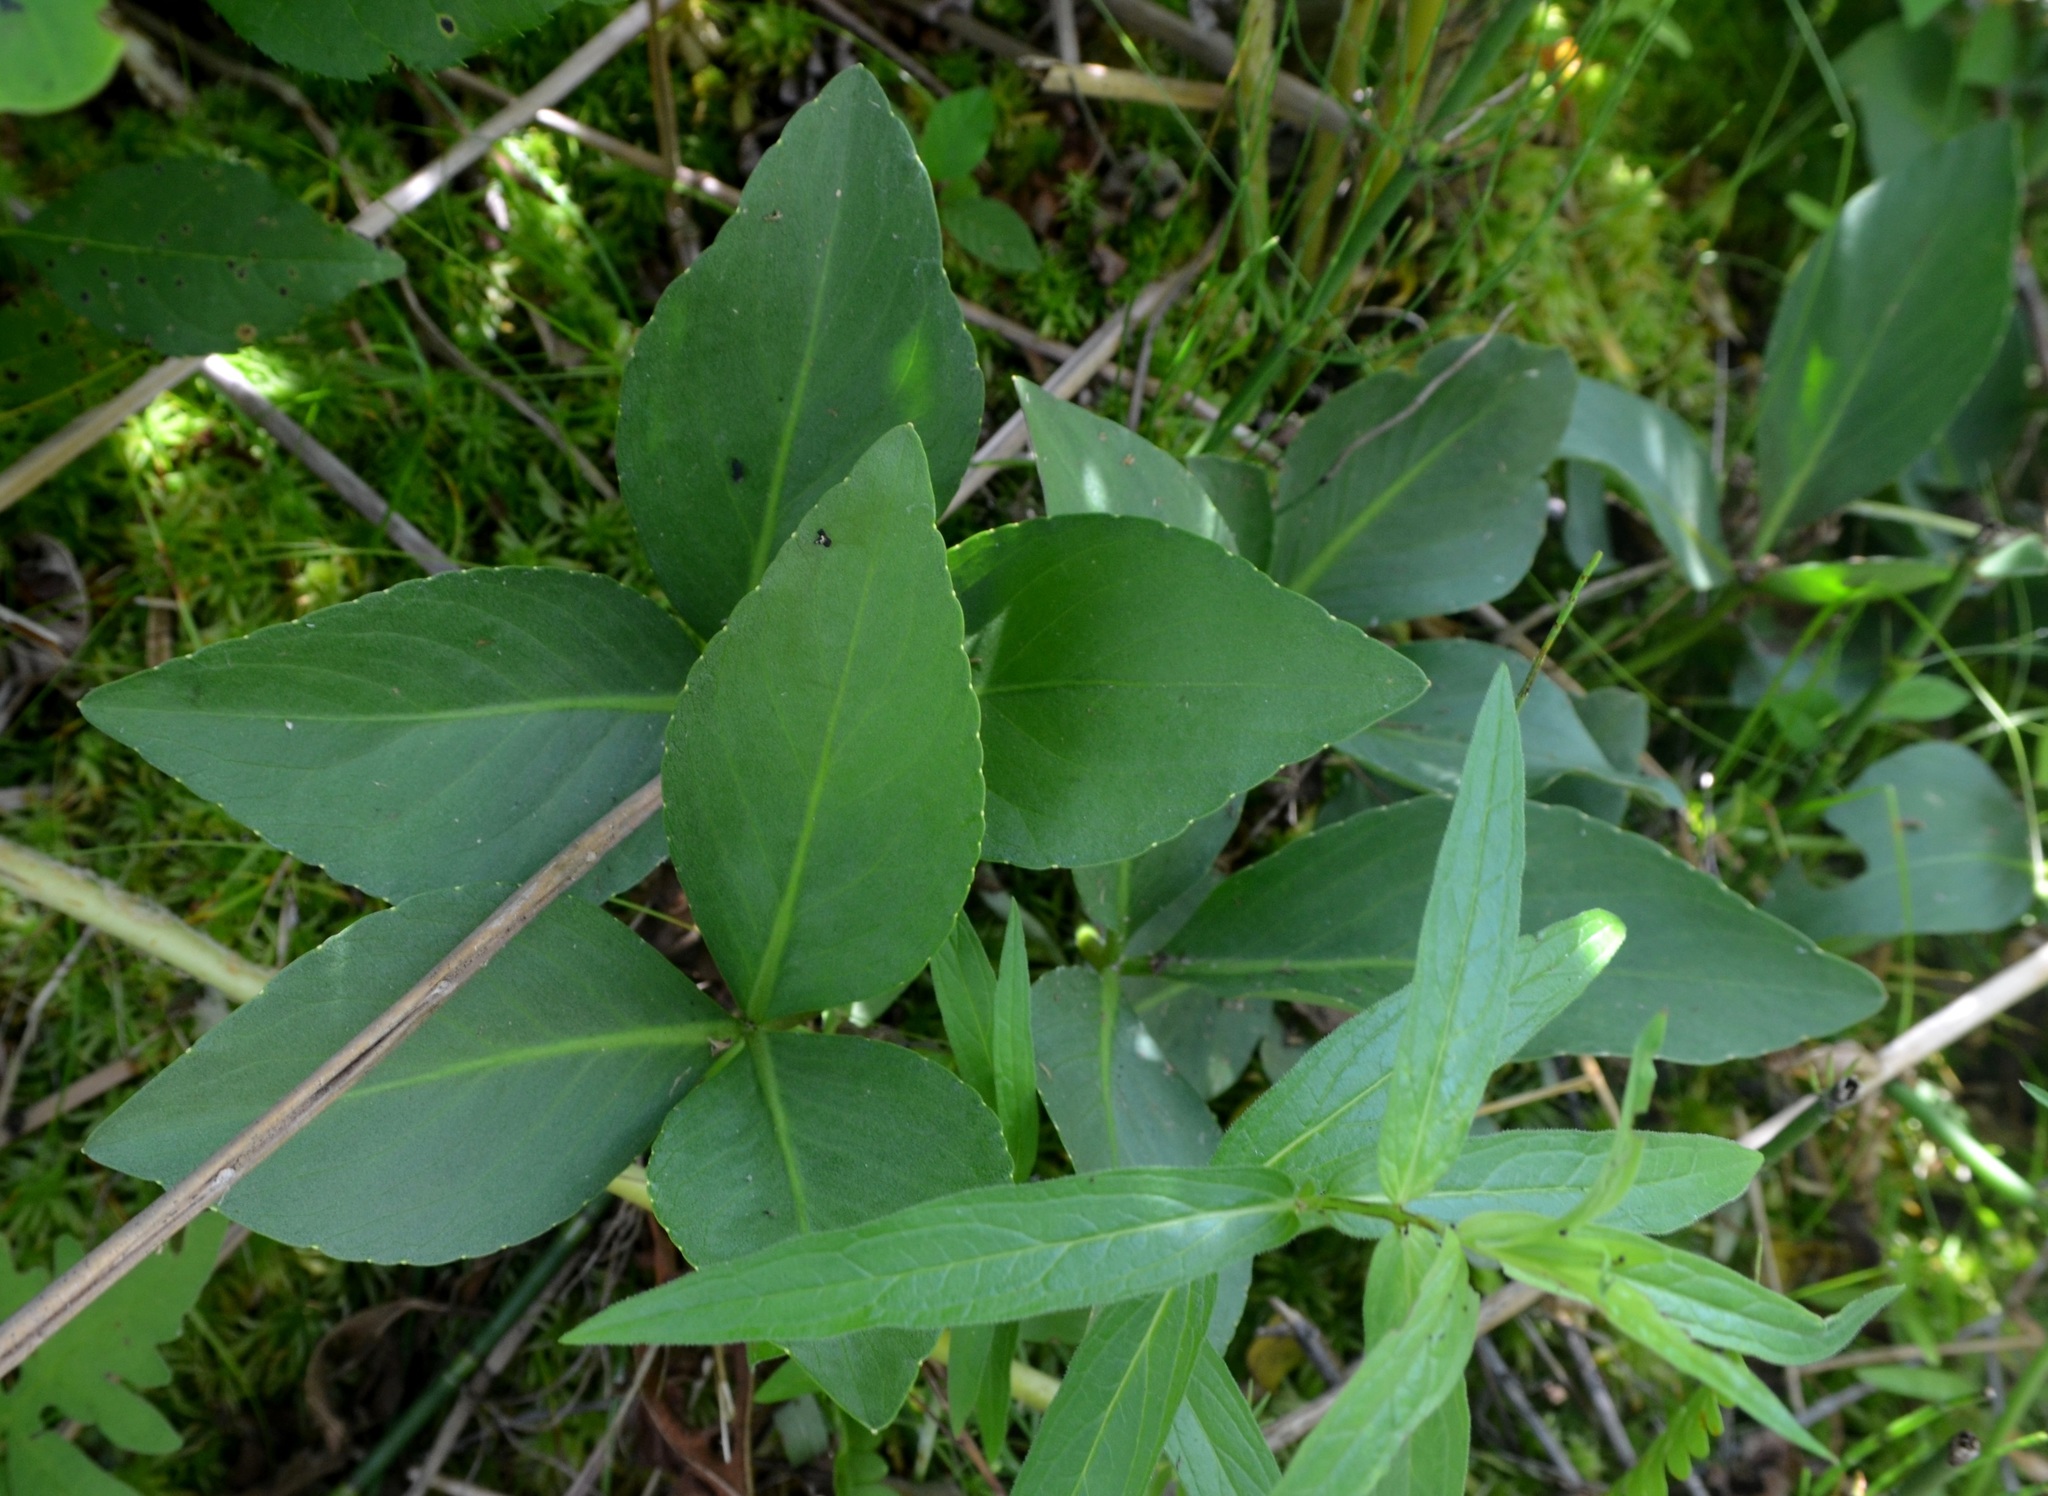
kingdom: Plantae
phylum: Tracheophyta
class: Magnoliopsida
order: Asterales
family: Menyanthaceae
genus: Menyanthes
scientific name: Menyanthes trifoliata
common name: Bogbean
